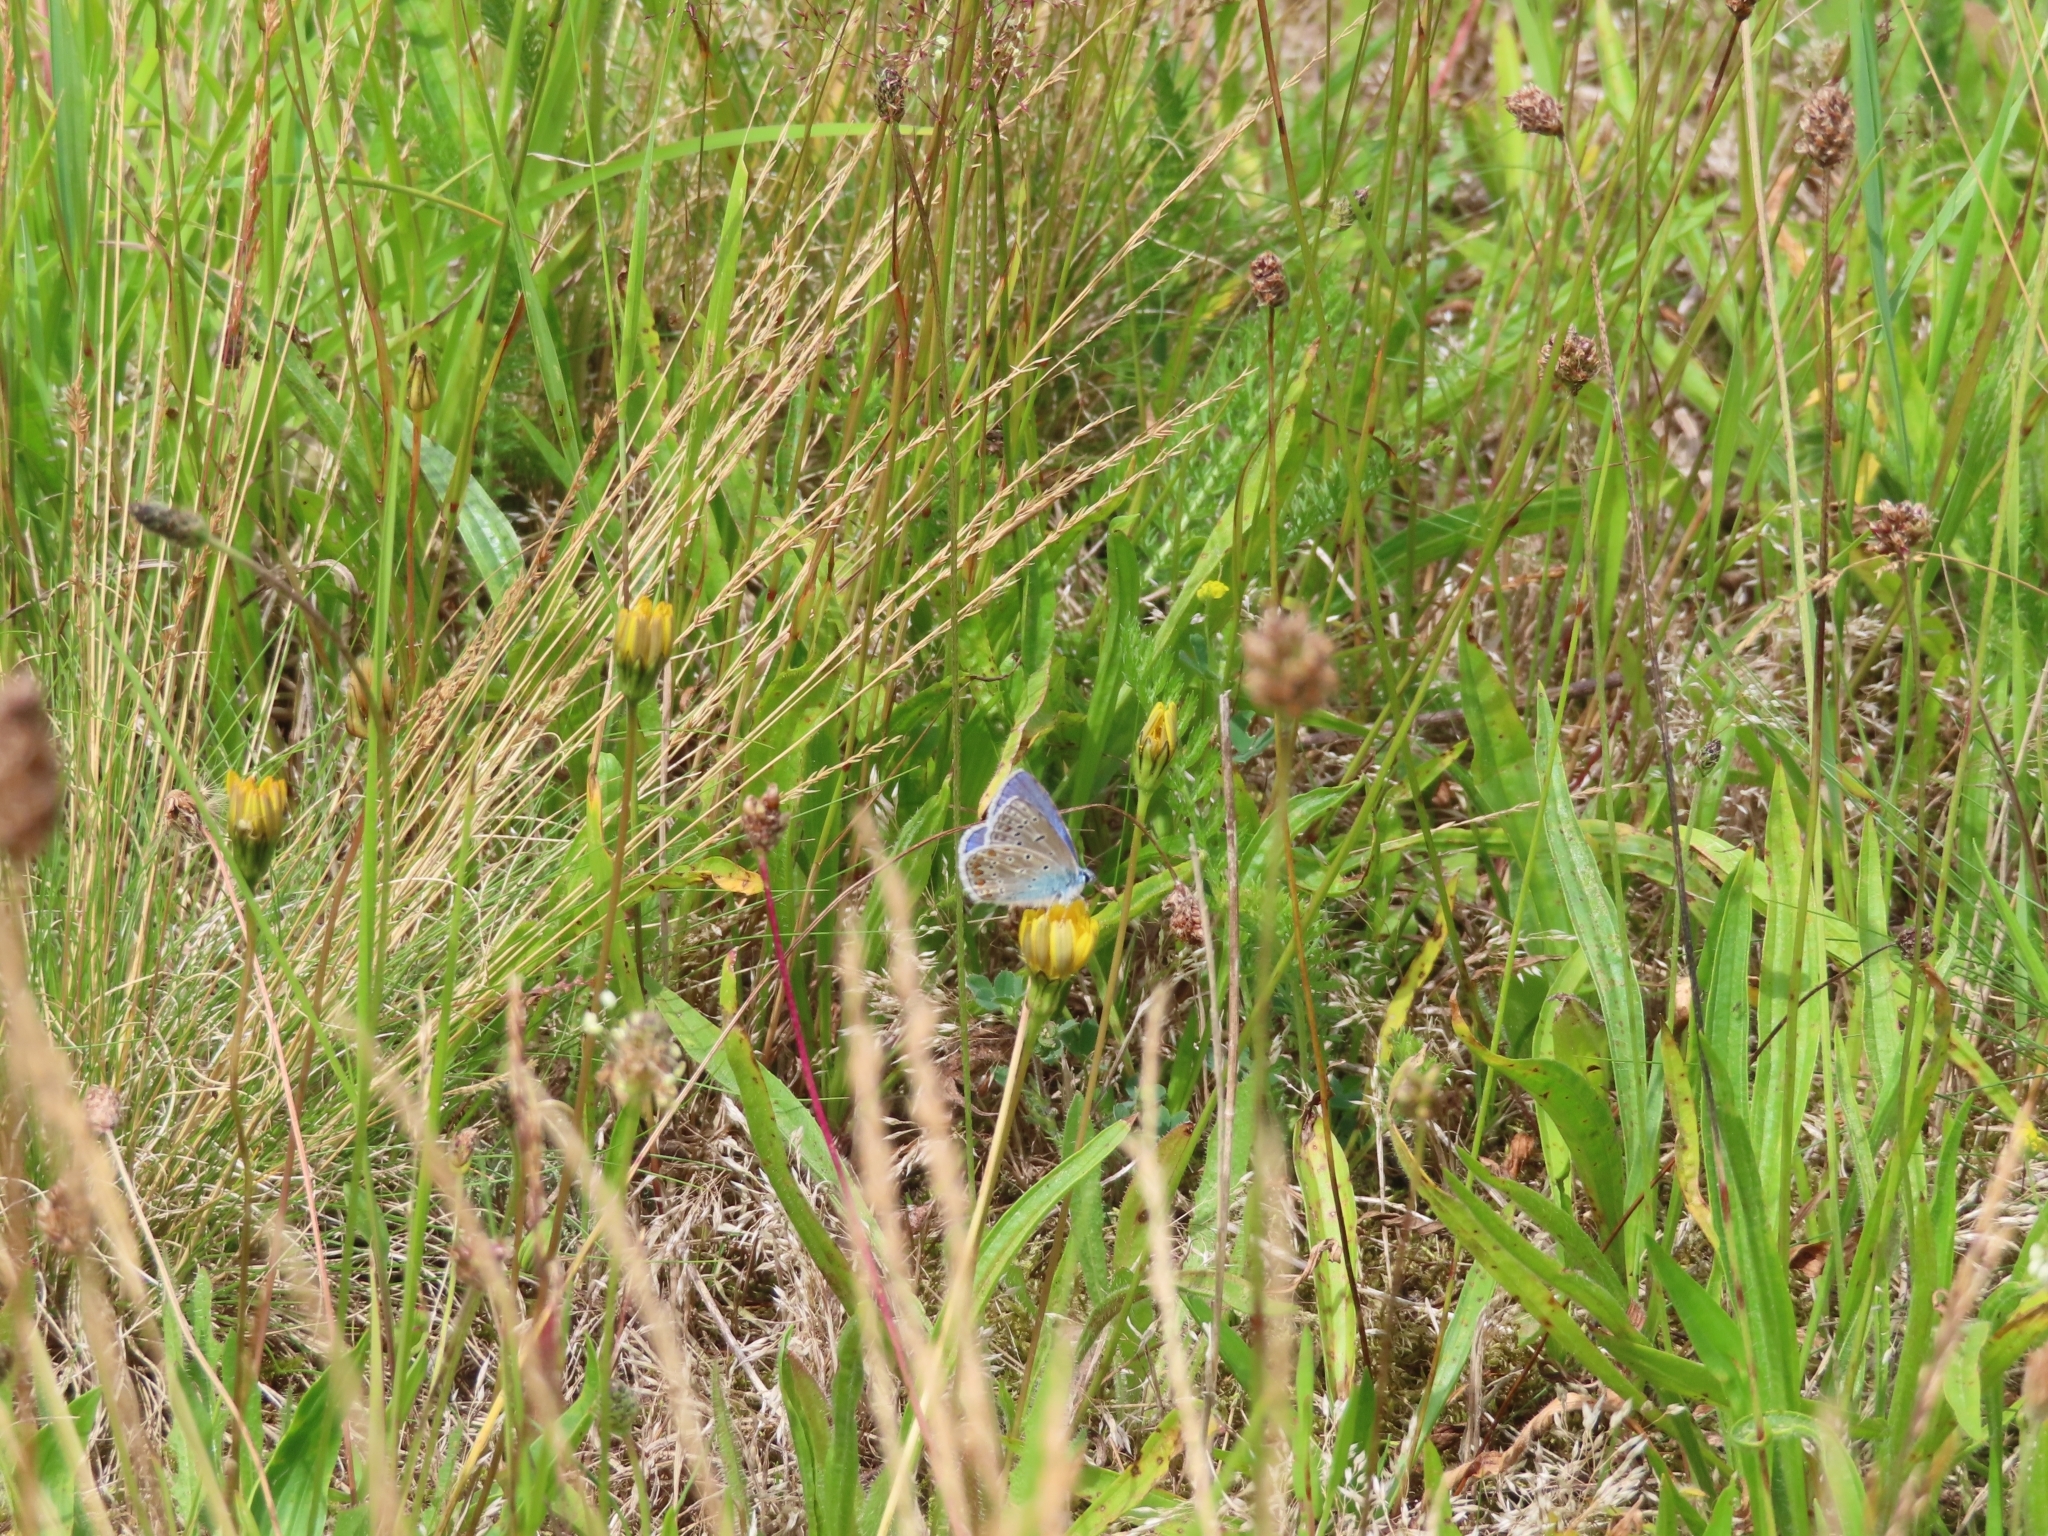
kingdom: Animalia
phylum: Arthropoda
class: Insecta
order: Lepidoptera
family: Lycaenidae
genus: Polyommatus
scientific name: Polyommatus icarus
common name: Common blue
